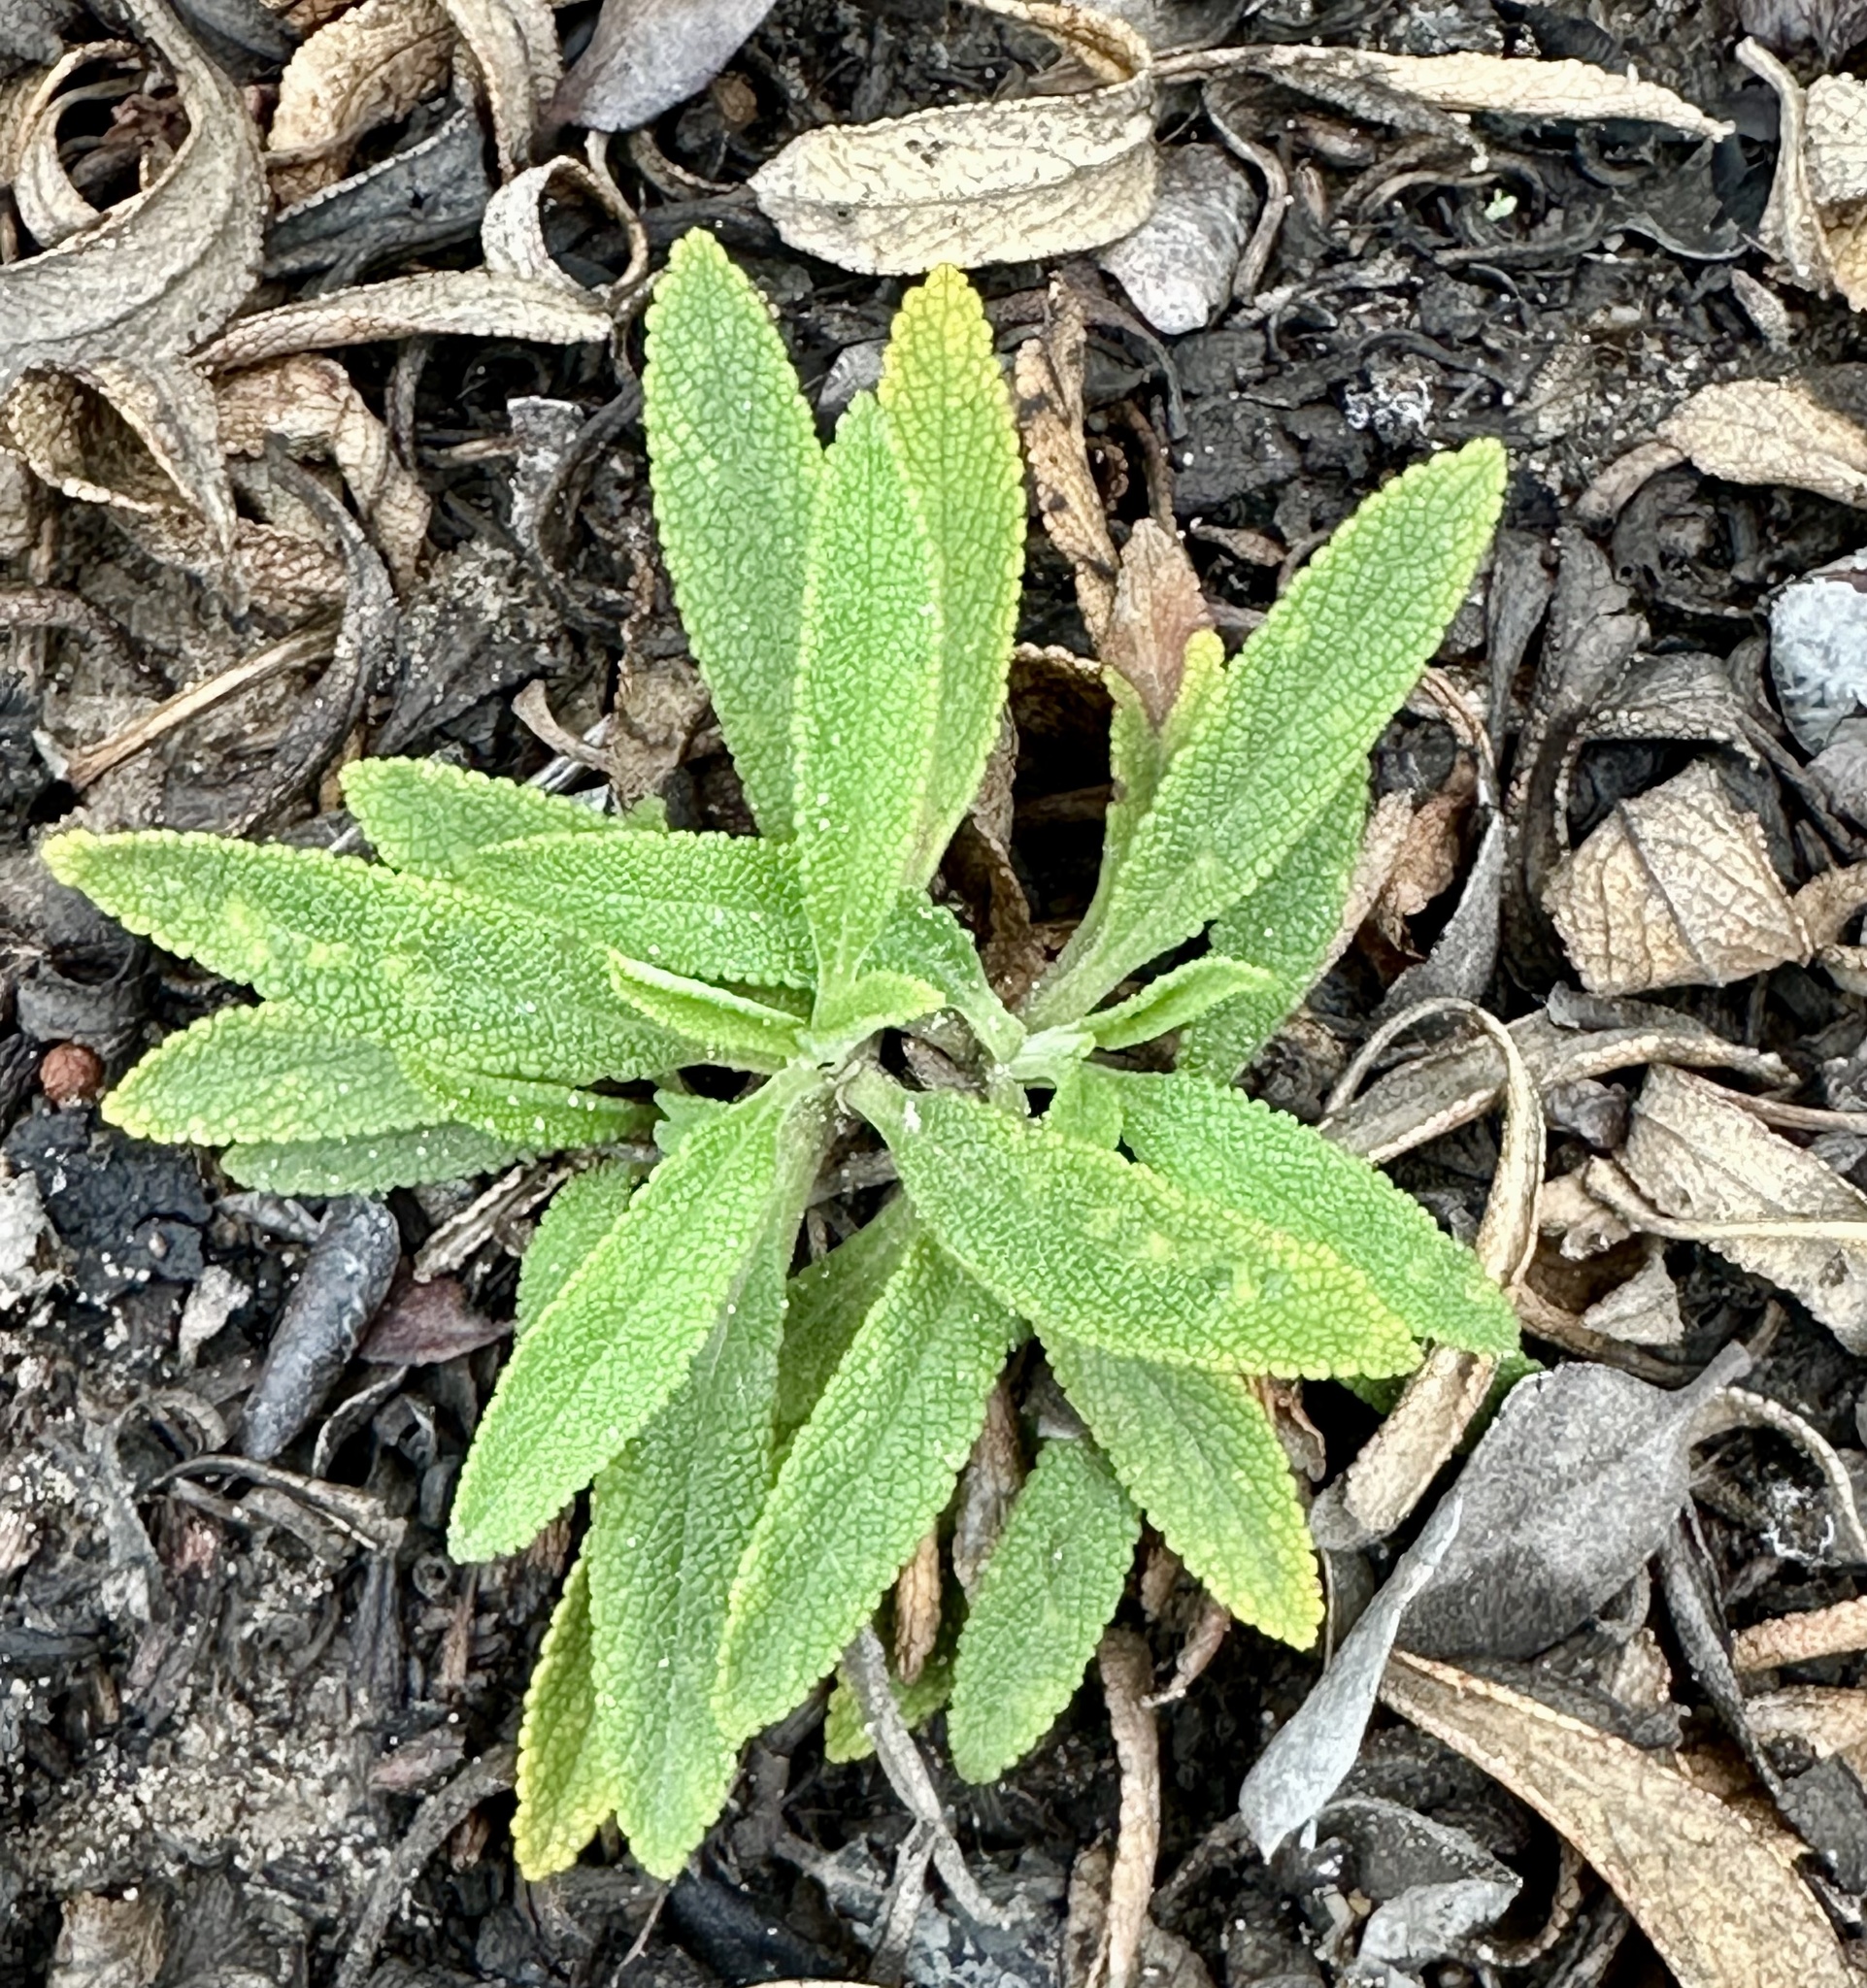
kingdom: Plantae
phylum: Tracheophyta
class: Magnoliopsida
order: Lamiales
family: Lamiaceae
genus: Salvia
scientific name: Salvia mellifera
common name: Black sage
